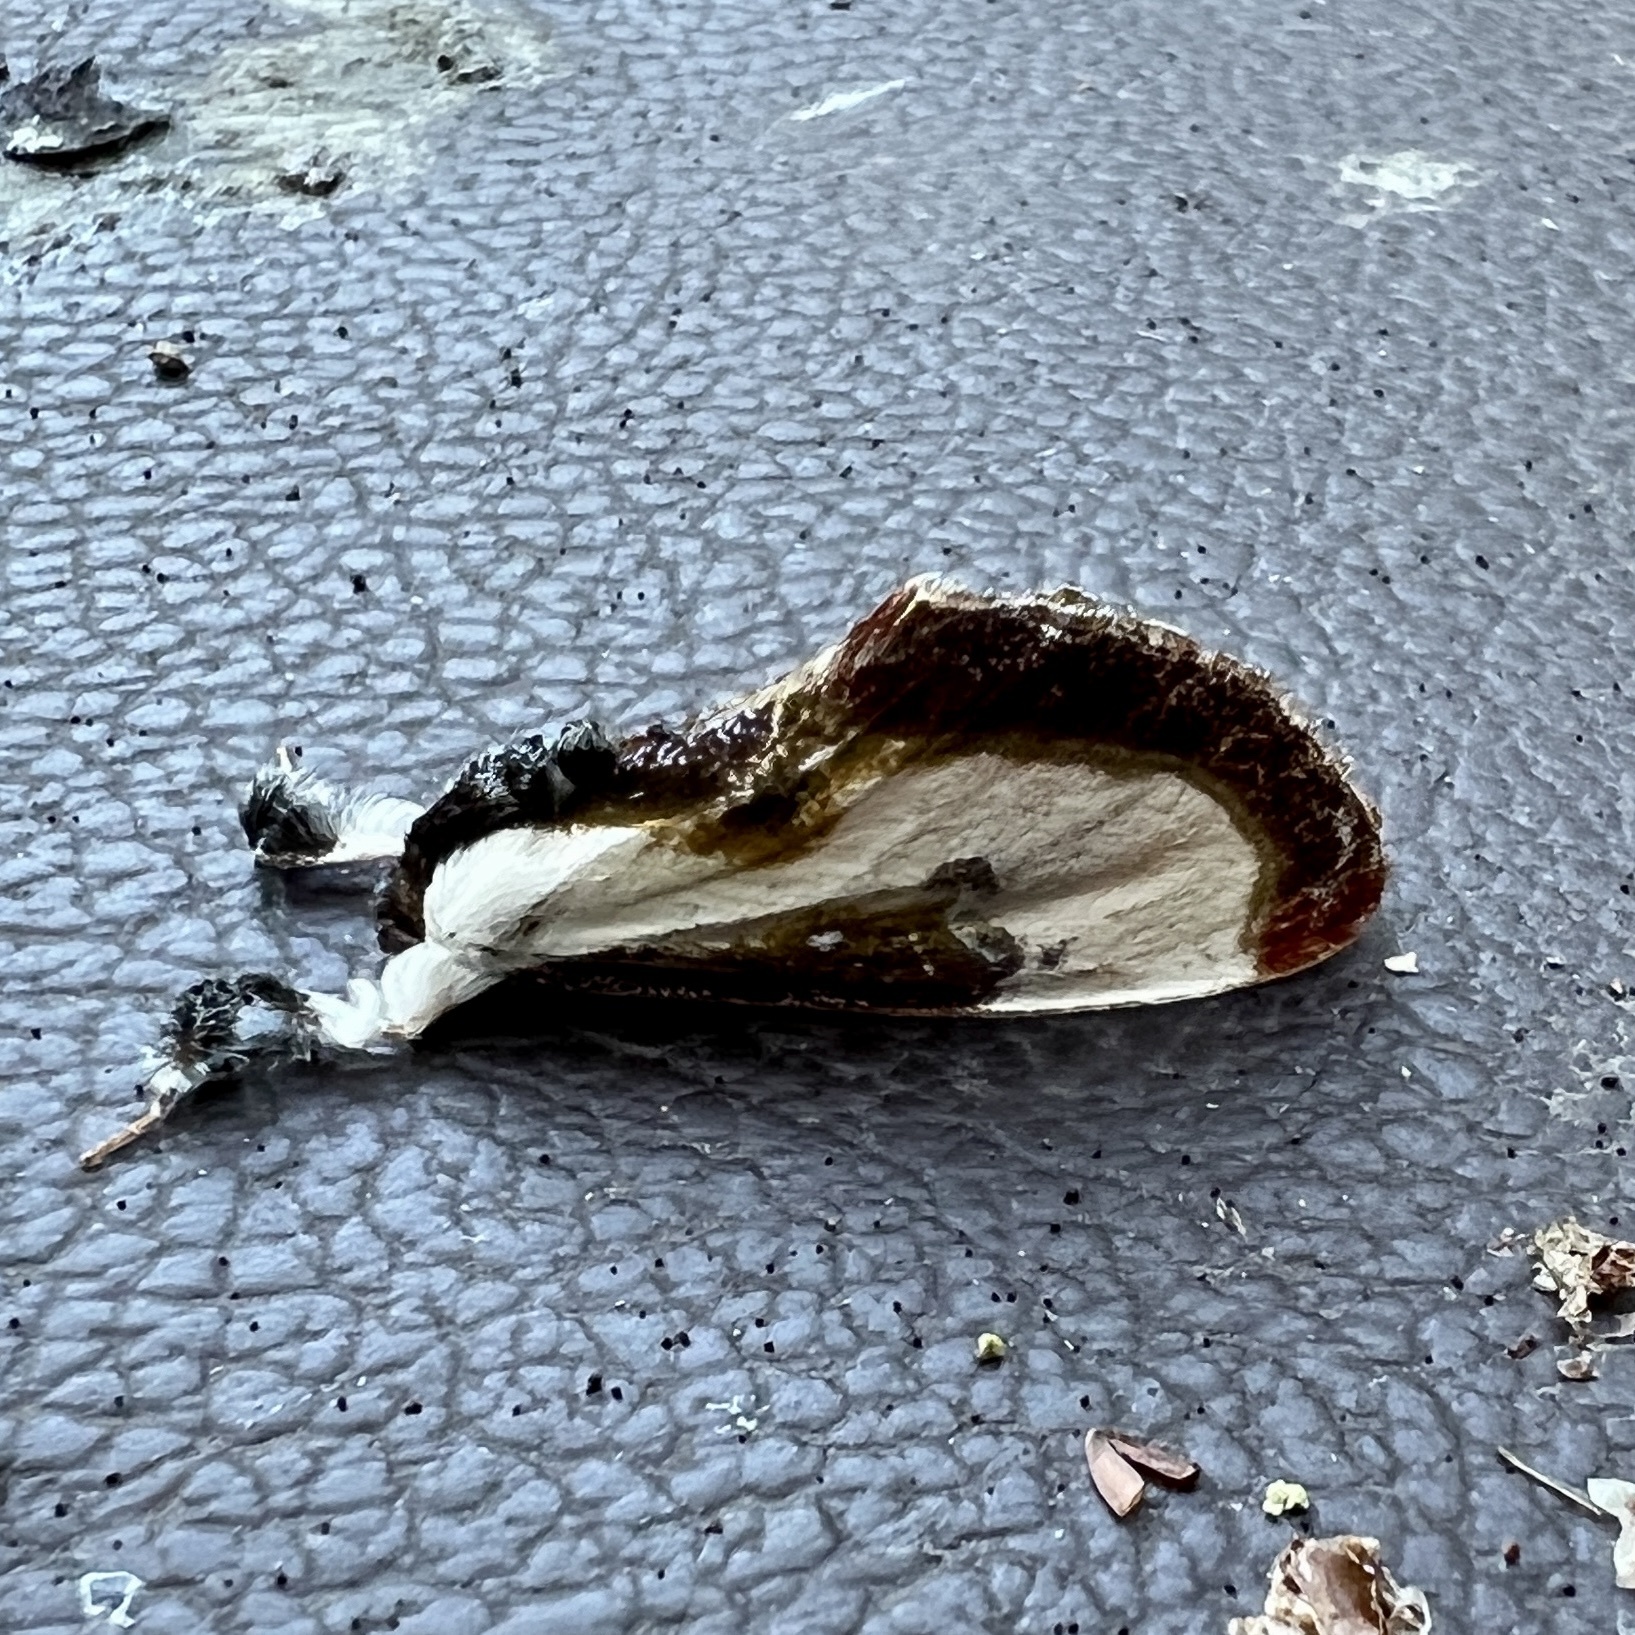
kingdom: Animalia
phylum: Arthropoda
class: Insecta
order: Lepidoptera
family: Noctuidae
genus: Eudryas
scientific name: Eudryas grata
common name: Beautiful wood-nymph
